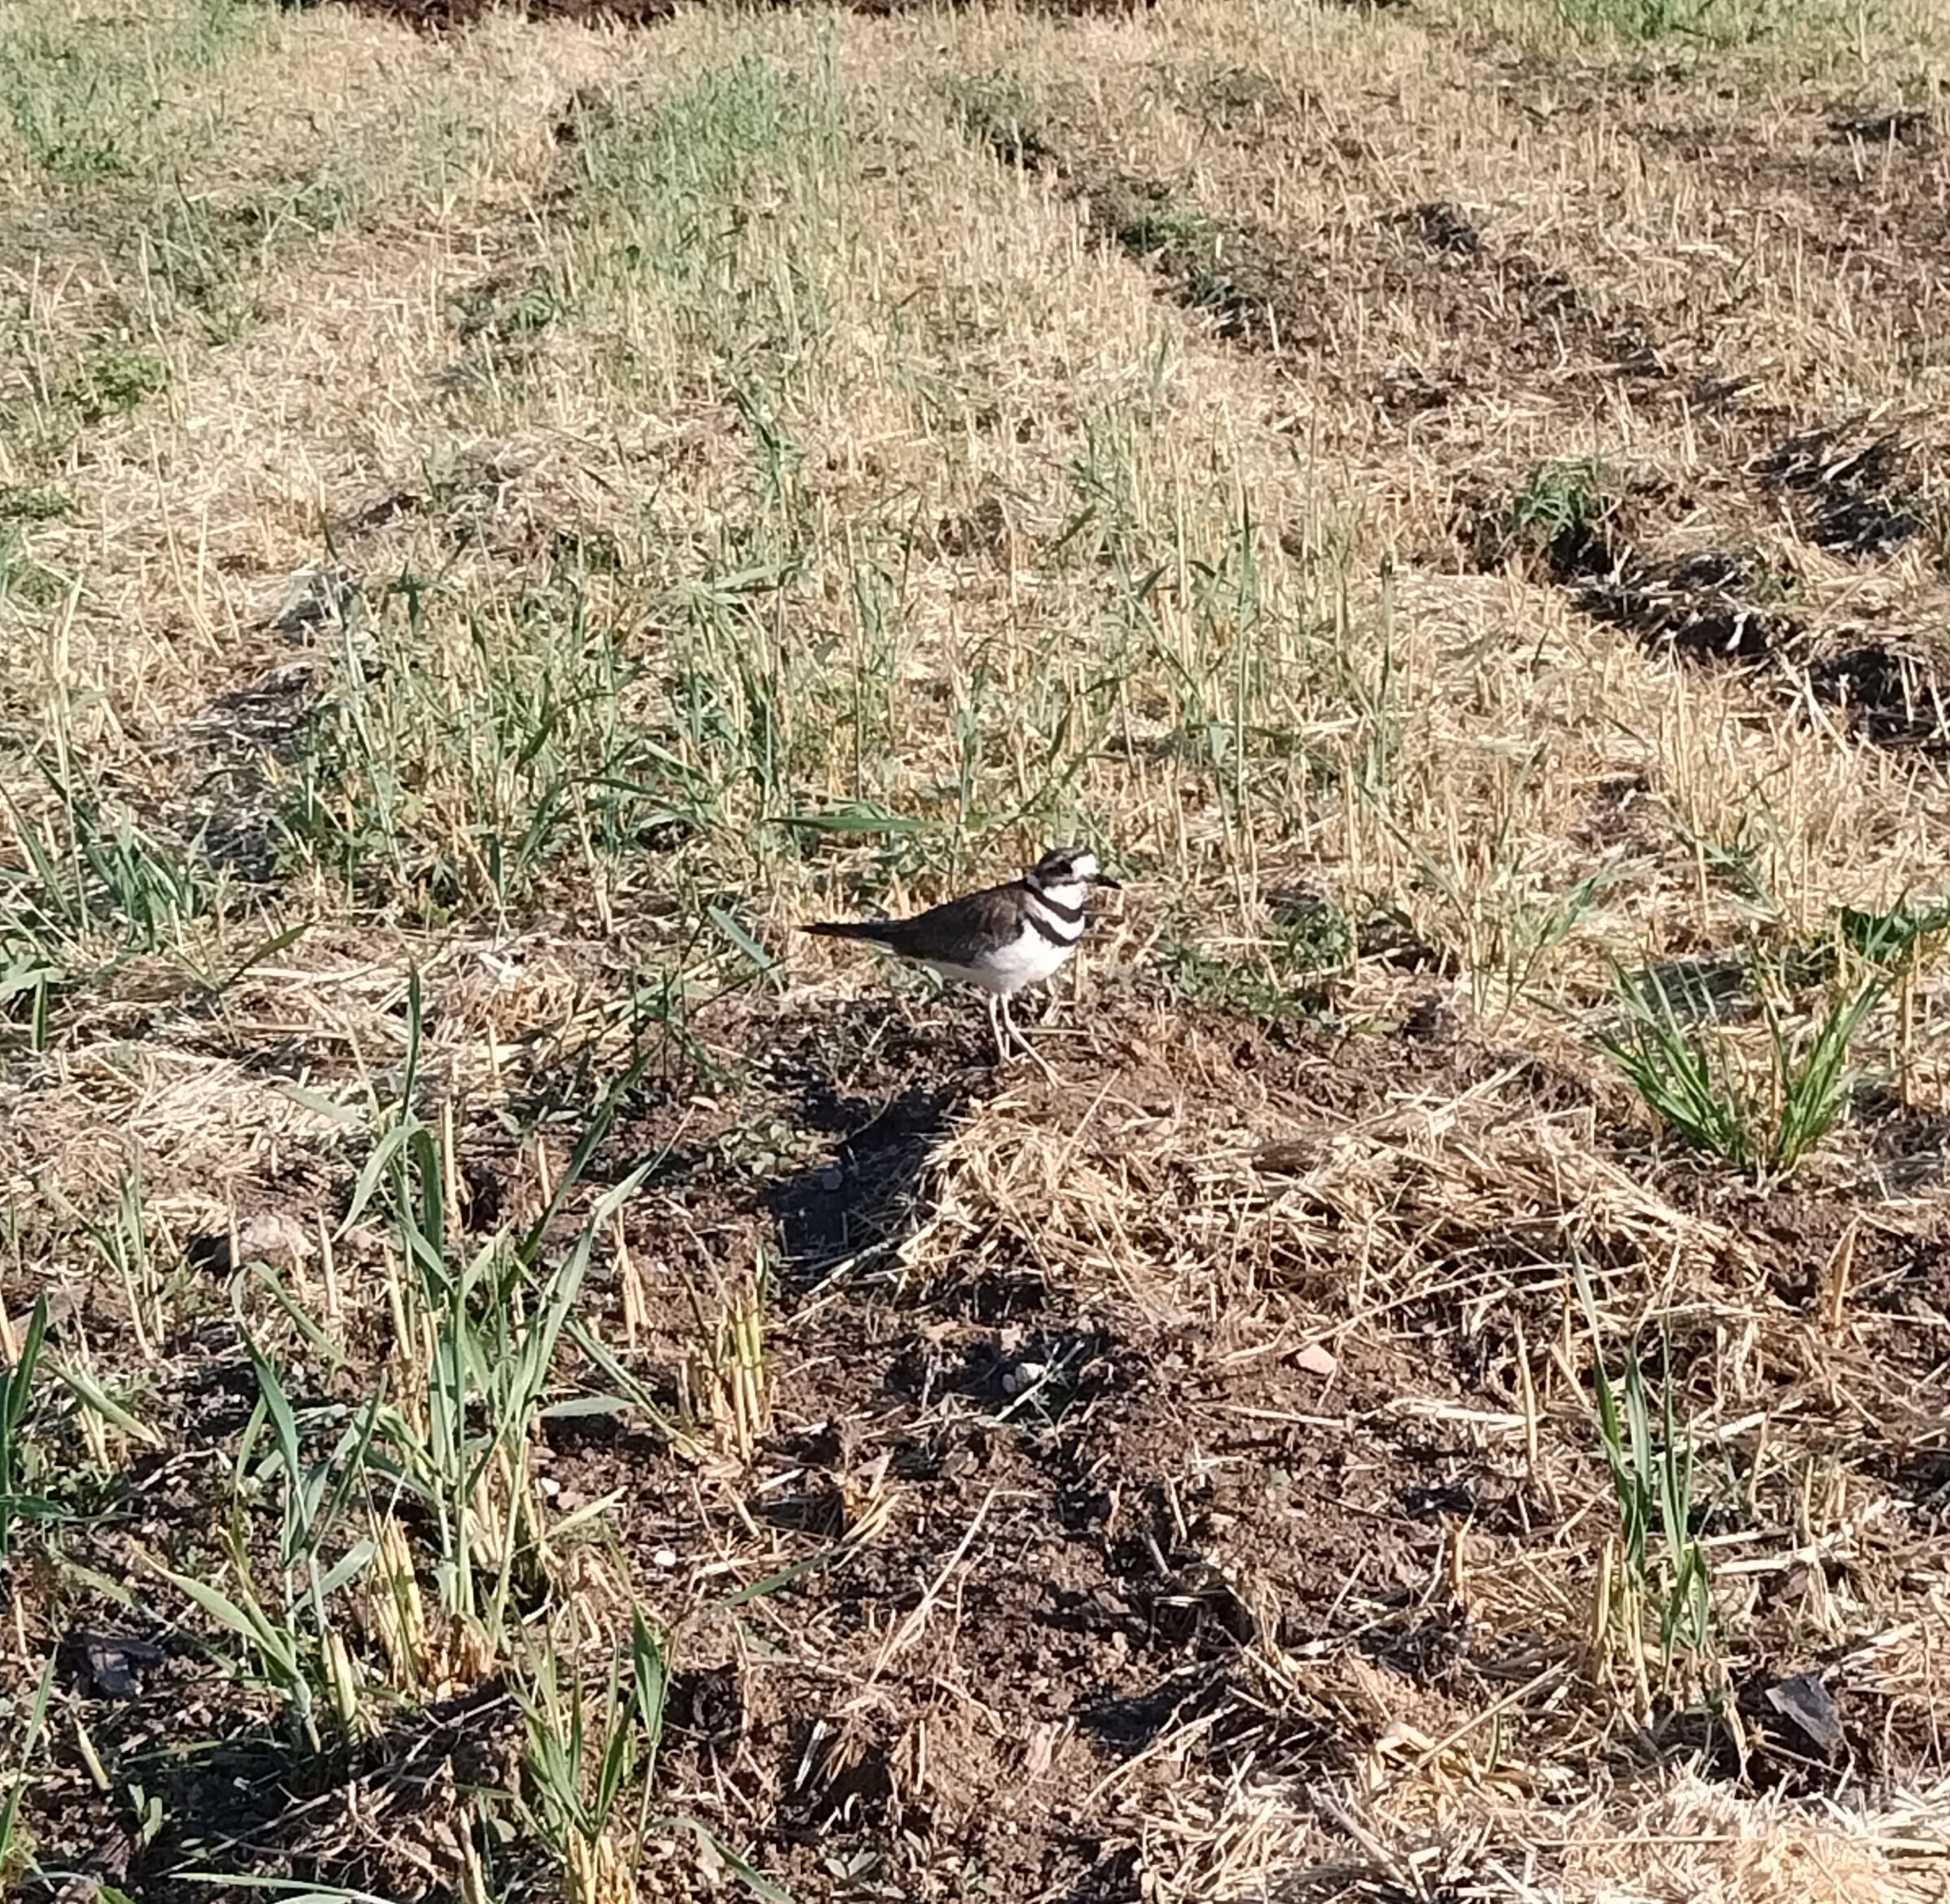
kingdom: Animalia
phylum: Chordata
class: Aves
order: Charadriiformes
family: Charadriidae
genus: Charadrius
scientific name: Charadrius vociferus
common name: Killdeer
